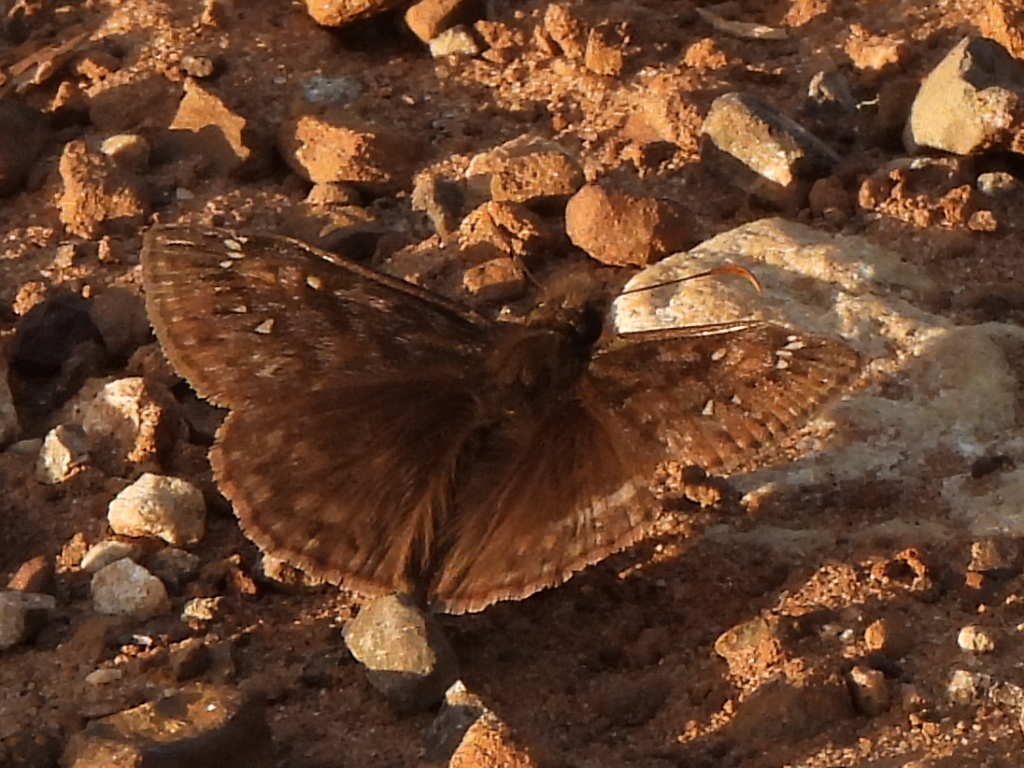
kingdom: Animalia
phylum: Arthropoda
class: Insecta
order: Lepidoptera
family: Hesperiidae
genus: Erynnis
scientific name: Erynnis juvenalis
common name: Juvenal's duskywing
